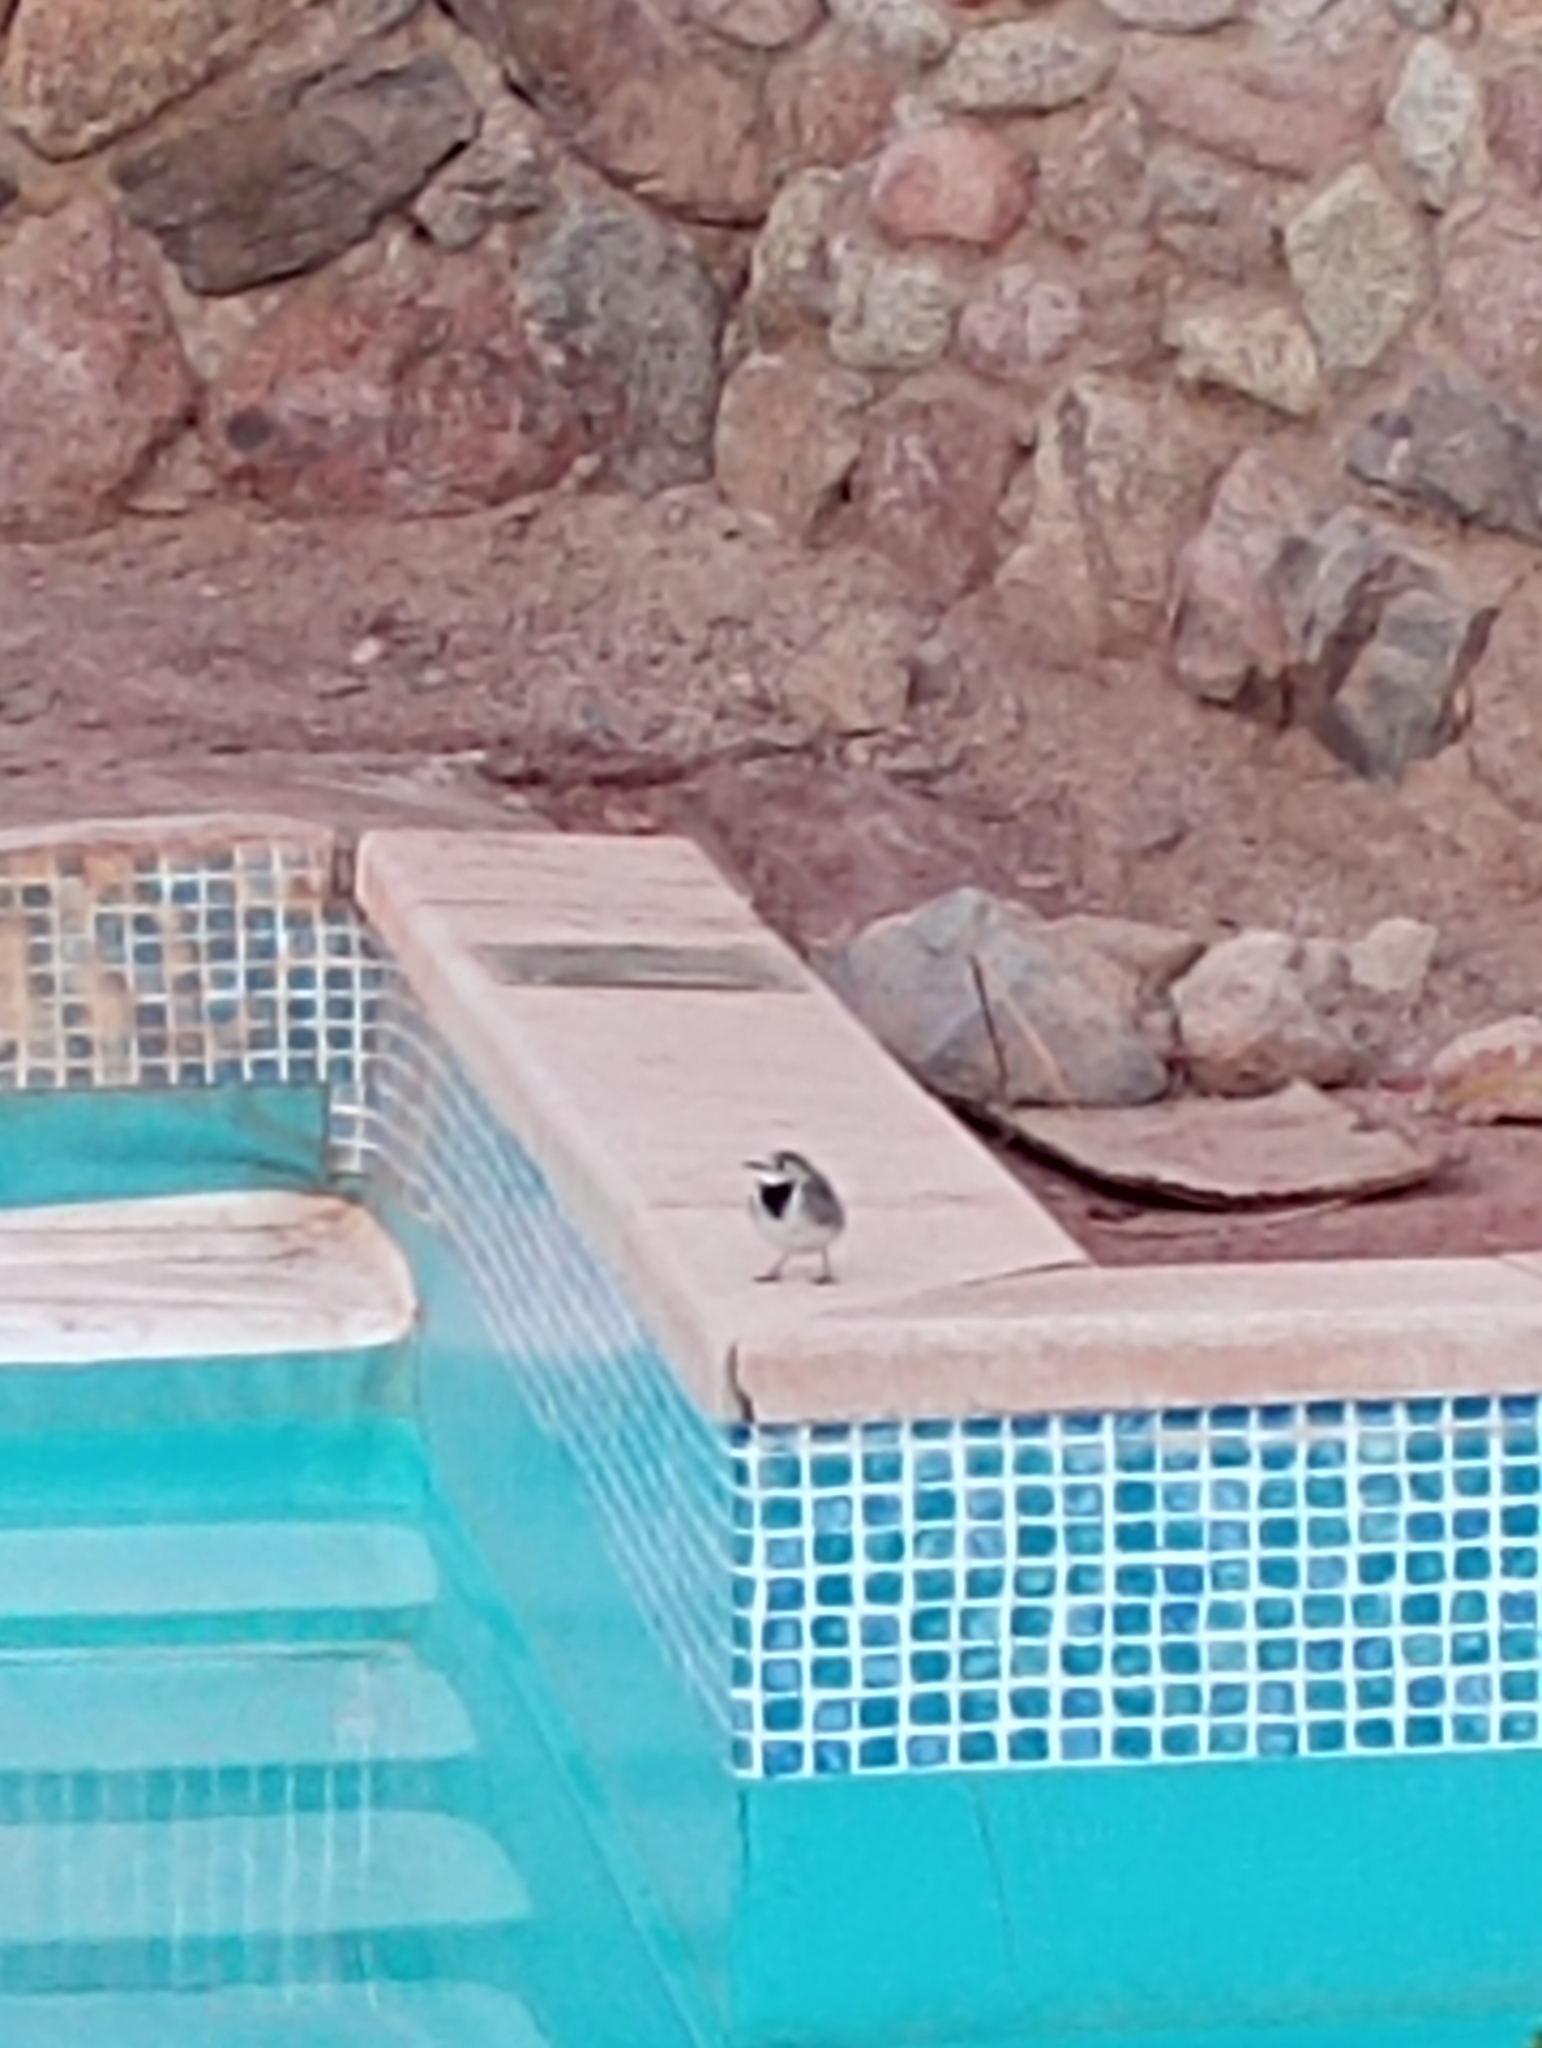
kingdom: Animalia
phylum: Chordata
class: Aves
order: Passeriformes
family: Motacillidae
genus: Motacilla
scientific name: Motacilla alba
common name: White wagtail
